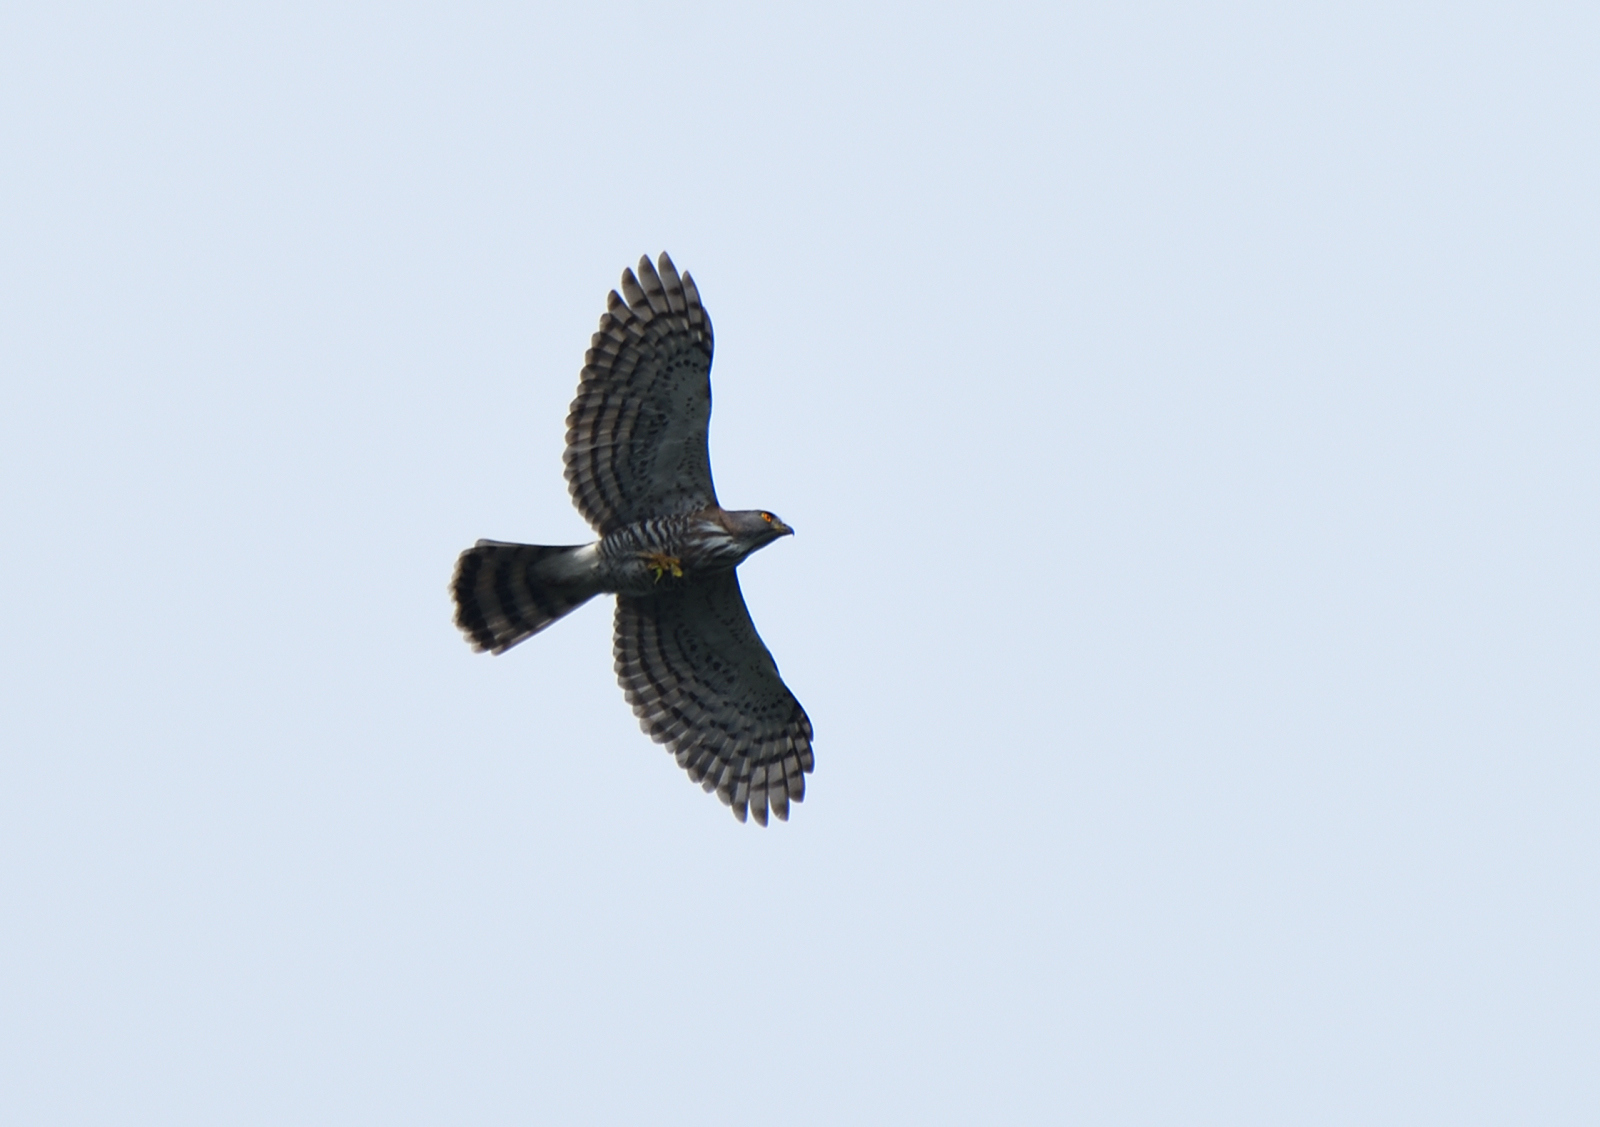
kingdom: Animalia
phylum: Chordata
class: Aves
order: Accipitriformes
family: Accipitridae
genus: Accipiter
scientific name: Accipiter trivirgatus
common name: Crested goshawk
